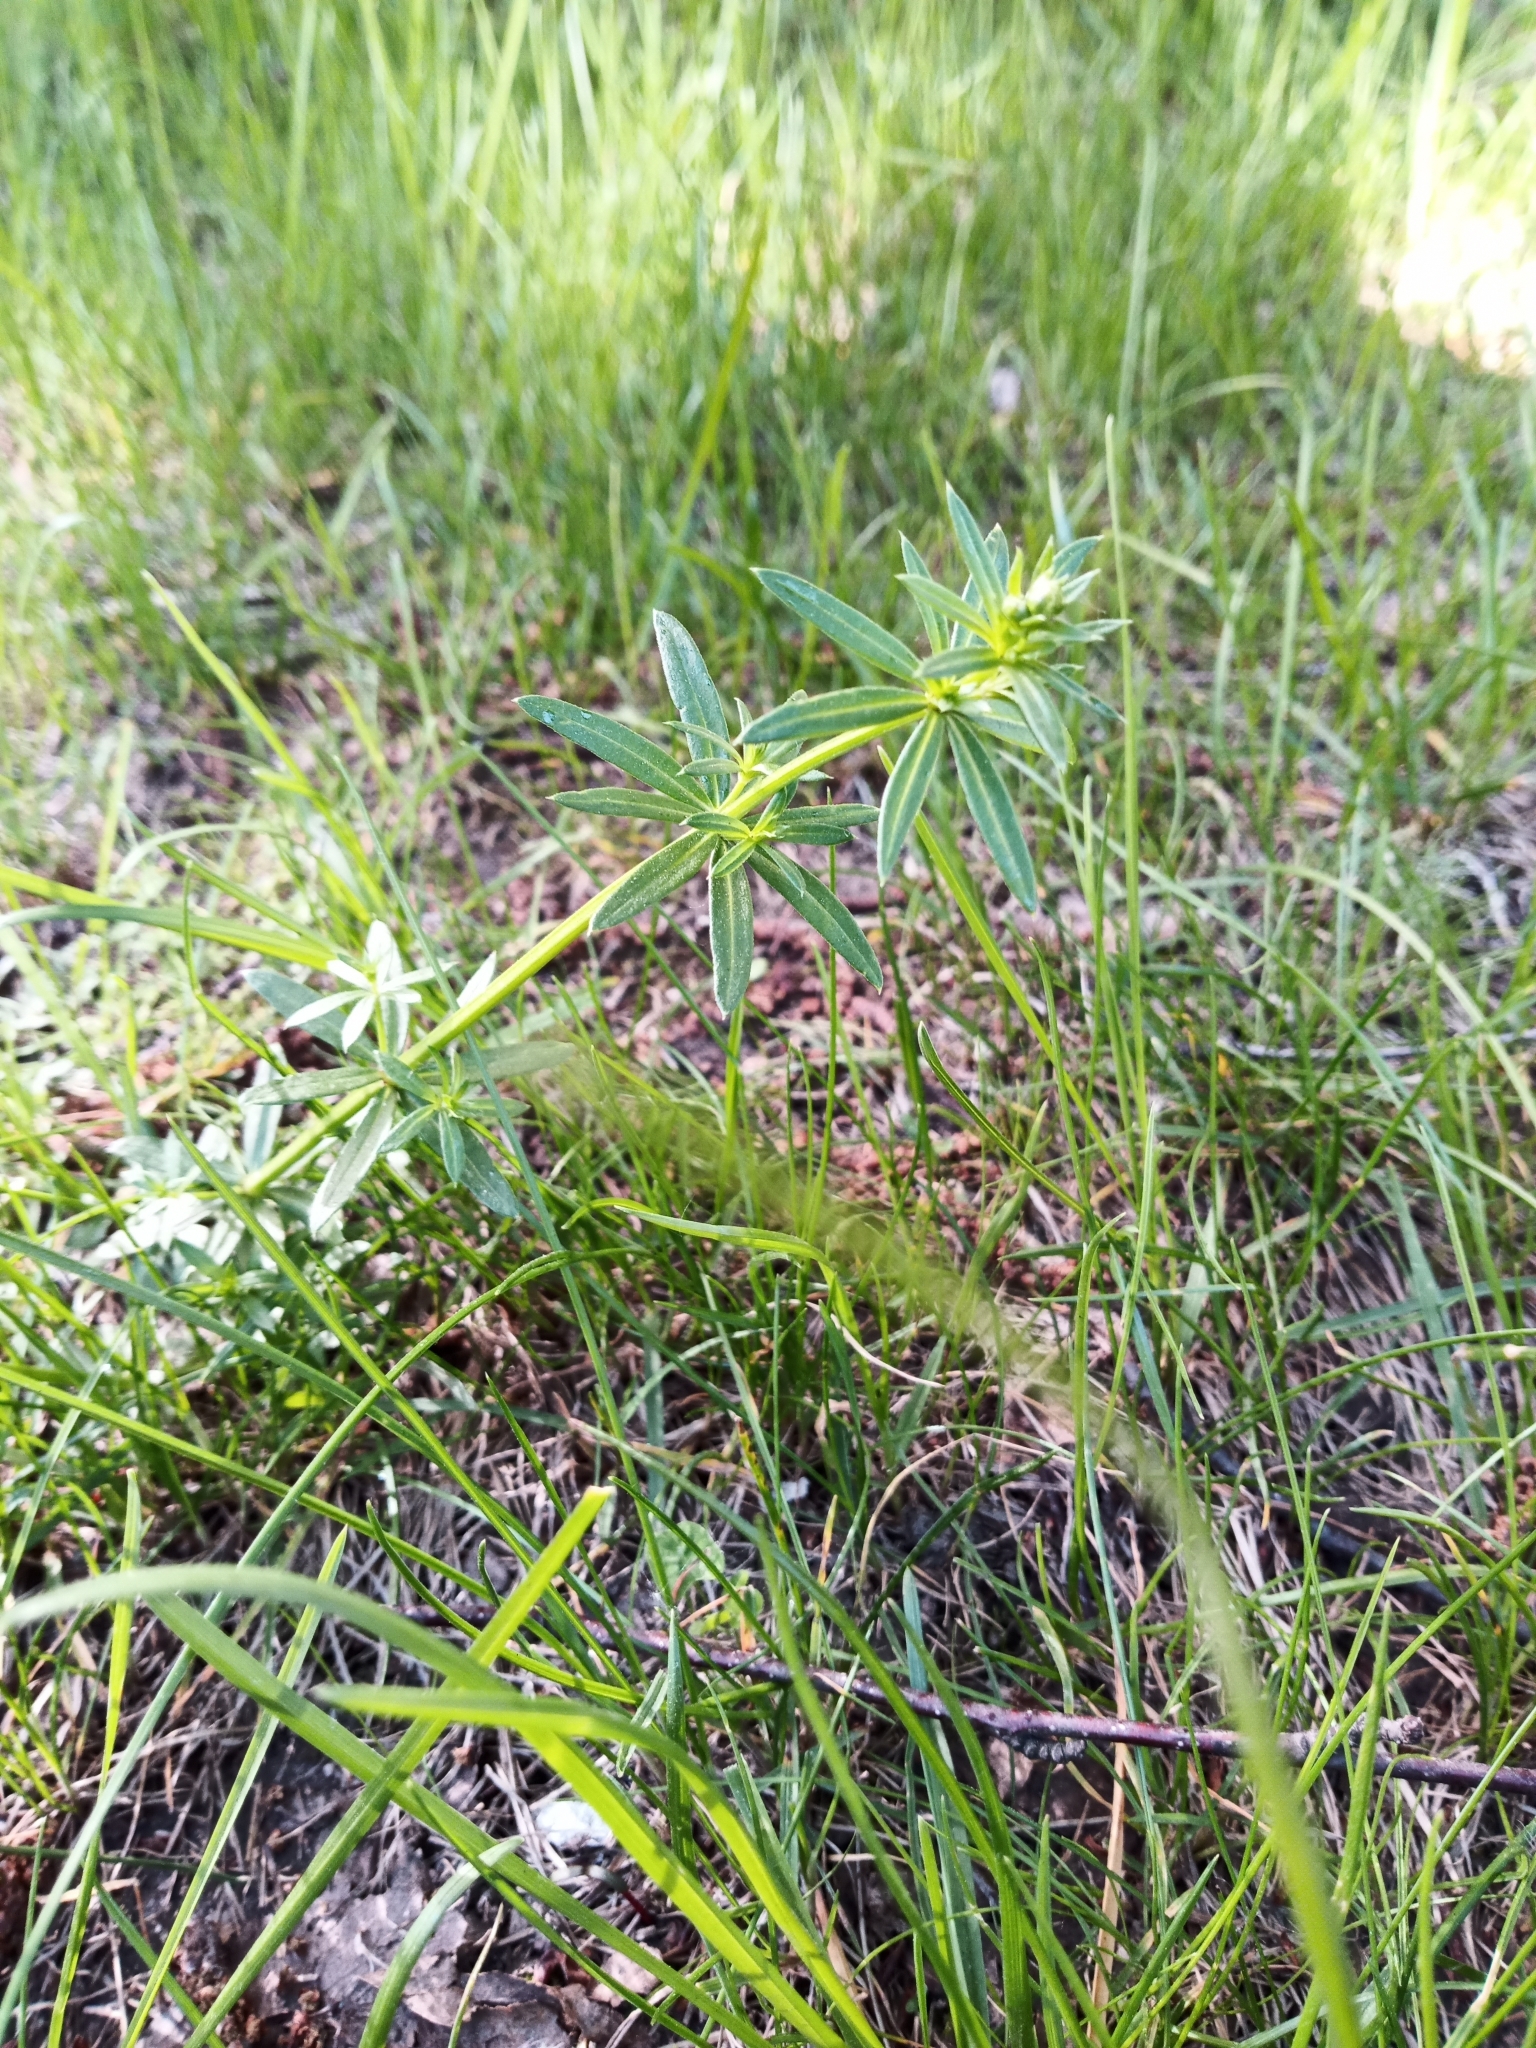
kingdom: Plantae
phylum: Tracheophyta
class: Magnoliopsida
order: Gentianales
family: Rubiaceae
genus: Galium
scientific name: Galium mollugo
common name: Hedge bedstraw
